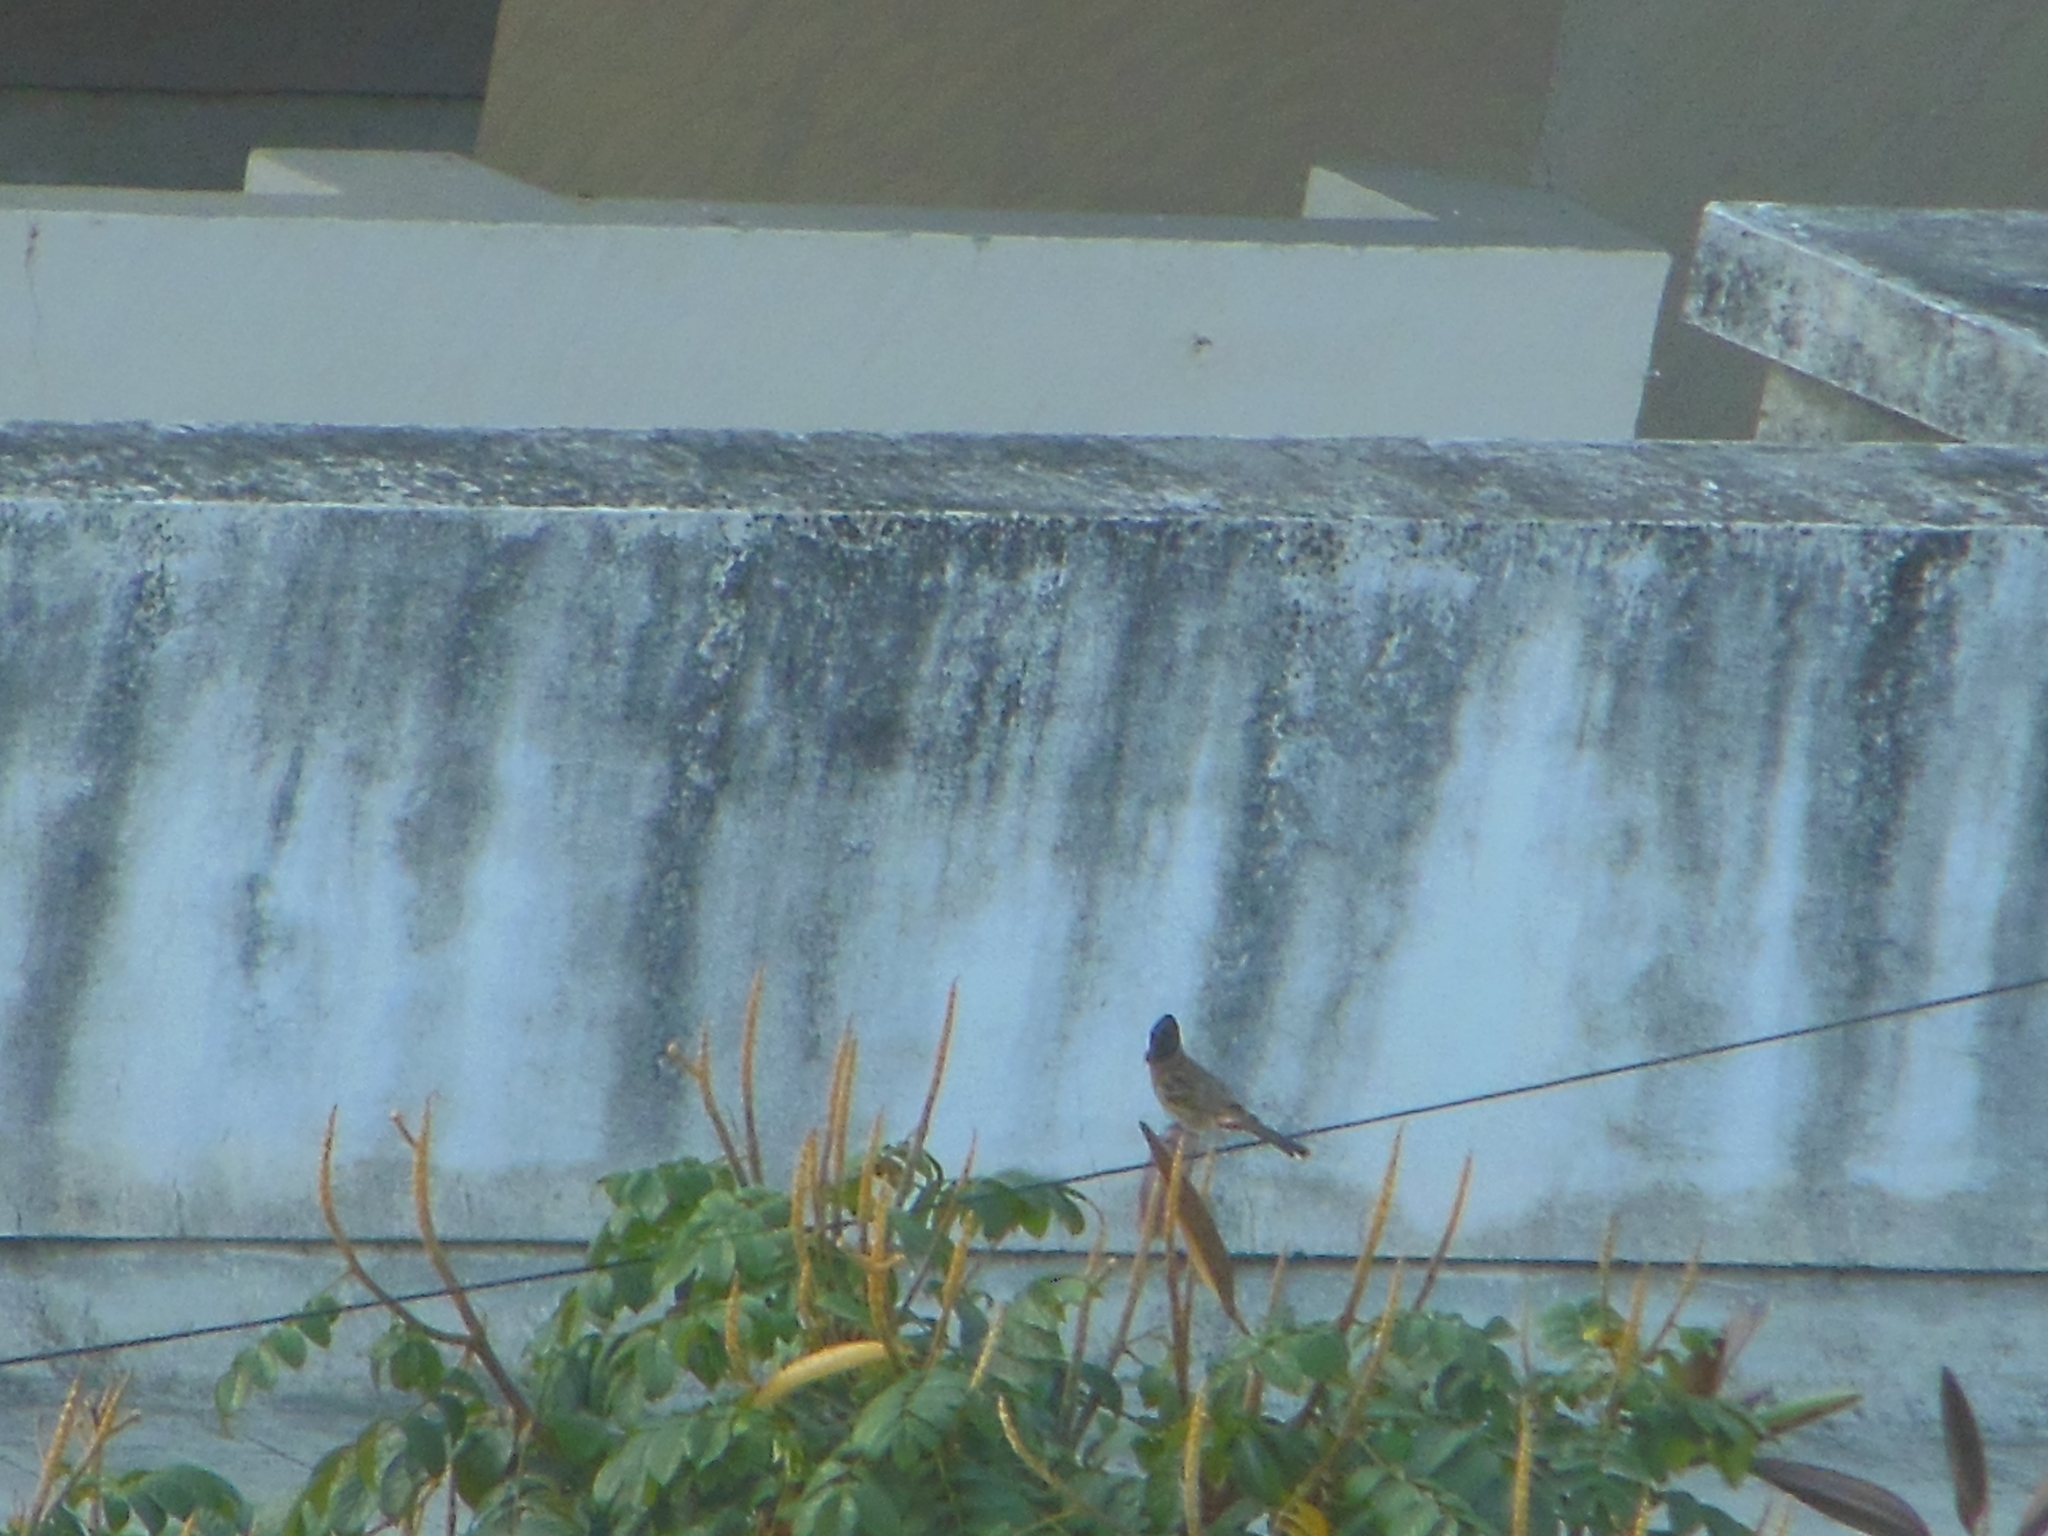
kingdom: Animalia
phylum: Chordata
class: Aves
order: Passeriformes
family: Pycnonotidae
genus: Pycnonotus
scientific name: Pycnonotus cafer
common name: Red-vented bulbul
